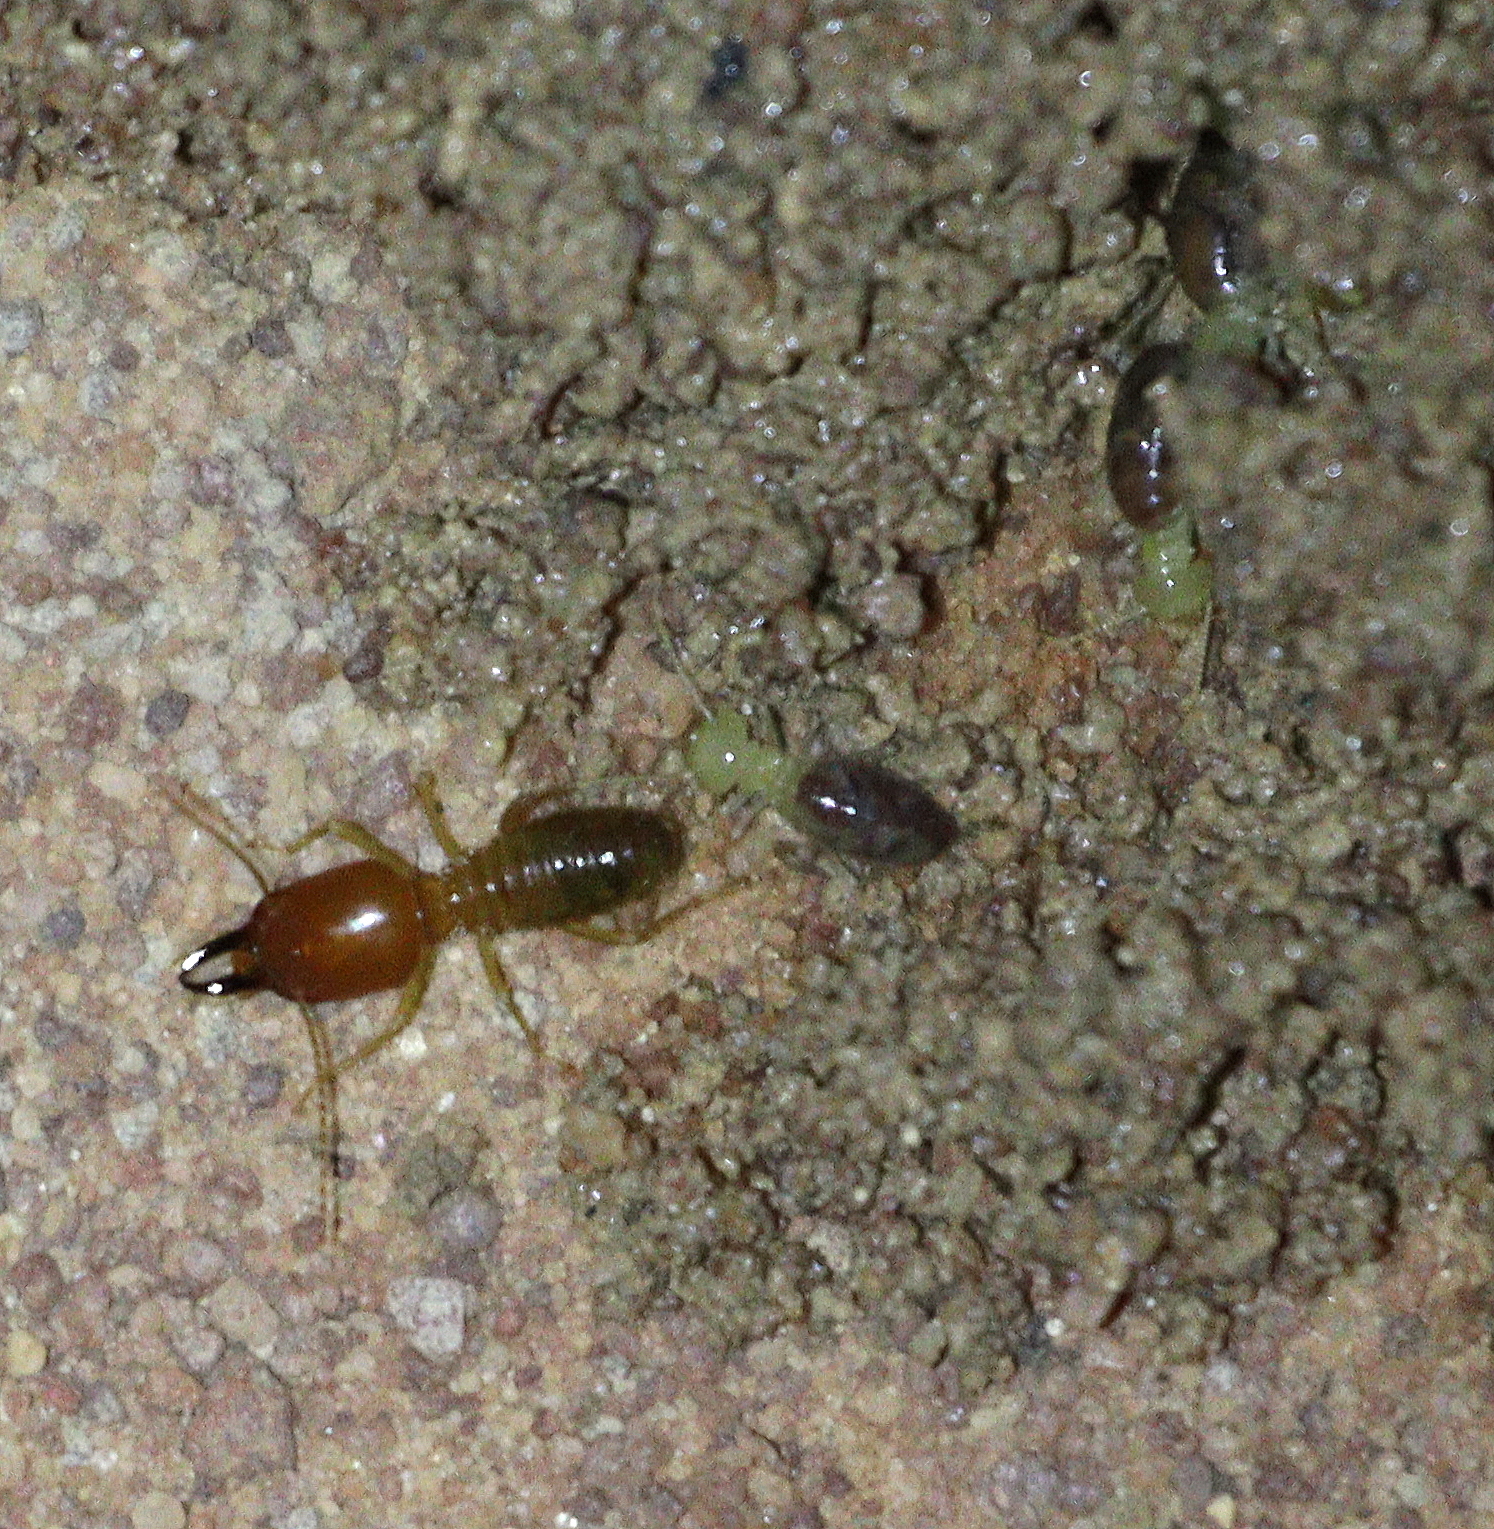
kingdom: Animalia
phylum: Arthropoda
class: Insecta
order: Blattodea
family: Termitidae
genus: Syntermes
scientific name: Syntermes nanus
